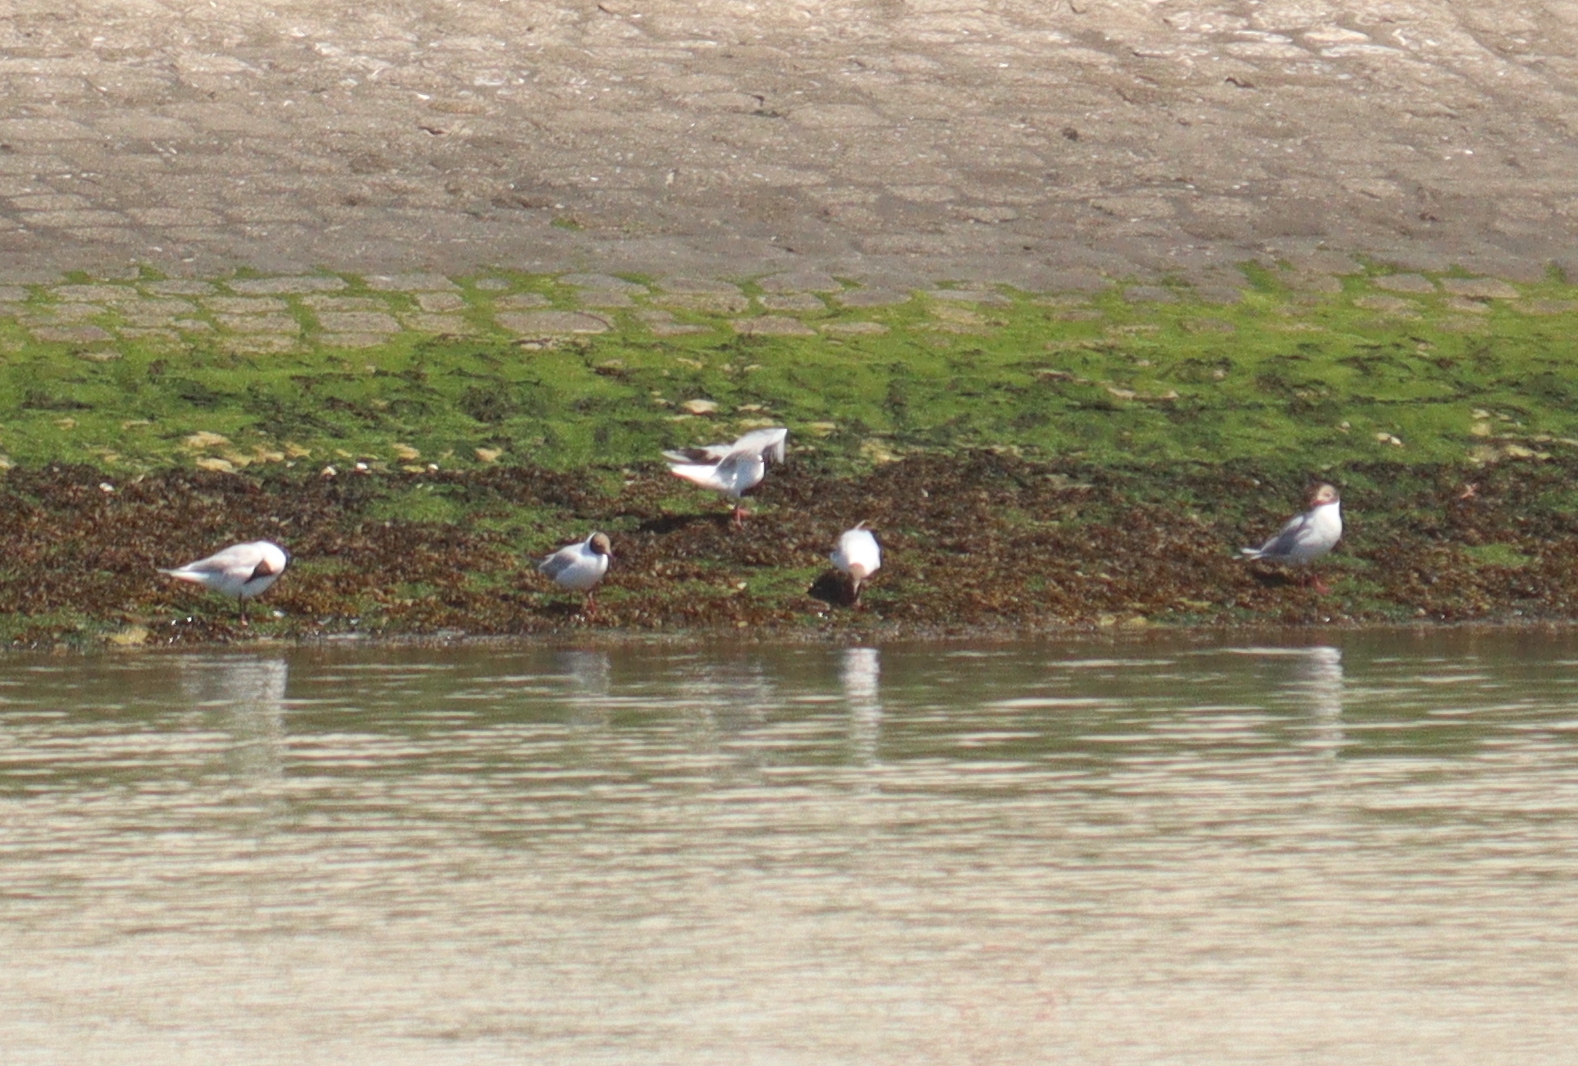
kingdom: Animalia
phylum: Chordata
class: Aves
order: Charadriiformes
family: Laridae
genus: Chroicocephalus
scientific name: Chroicocephalus ridibundus
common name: Black-headed gull
